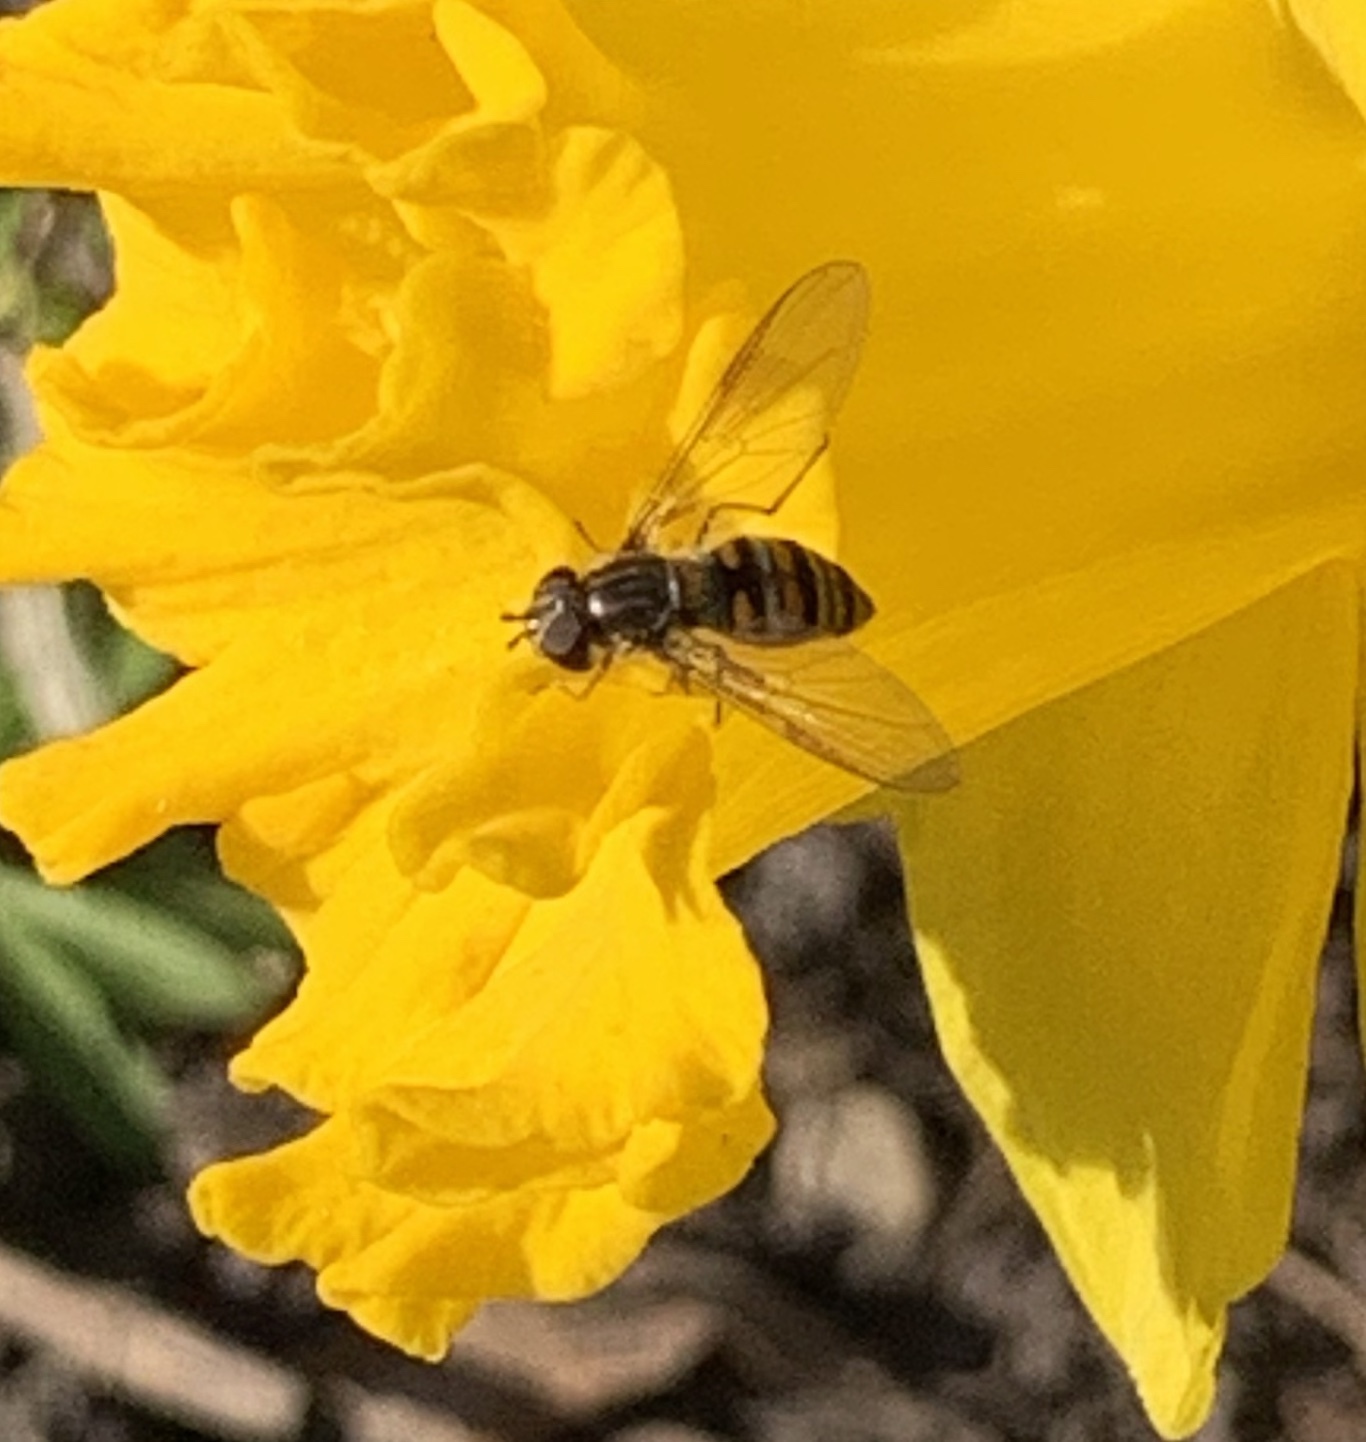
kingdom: Animalia
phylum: Arthropoda
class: Insecta
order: Diptera
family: Syrphidae
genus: Episyrphus
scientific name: Episyrphus balteatus
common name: Marmalade hoverfly
